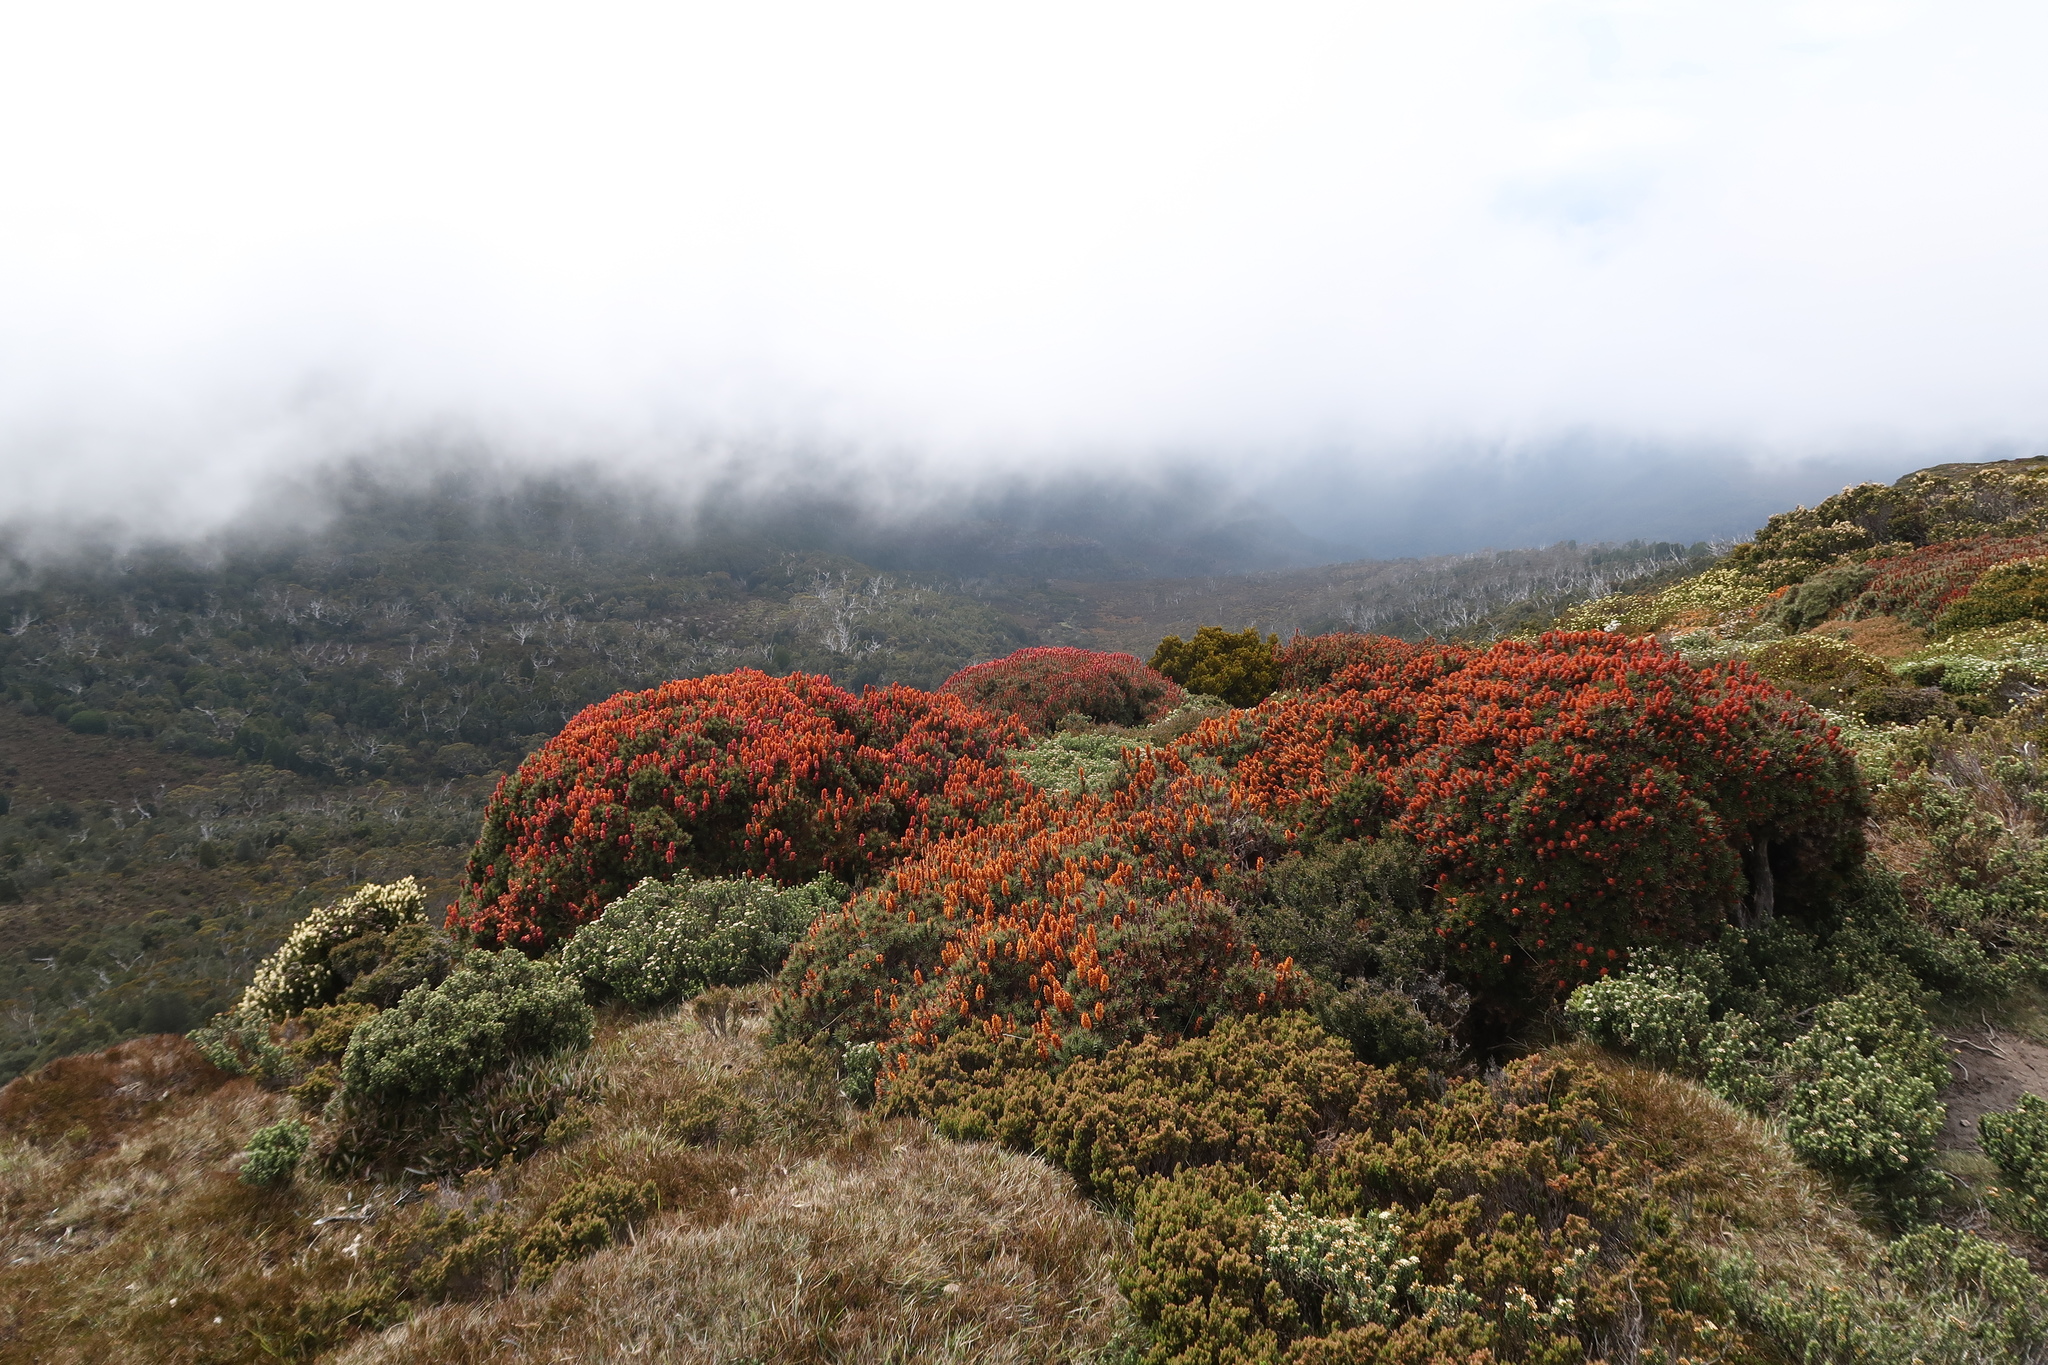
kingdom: Plantae
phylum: Tracheophyta
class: Magnoliopsida
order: Ericales
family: Ericaceae
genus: Dracophyllum
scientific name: Dracophyllum persistentifolium
